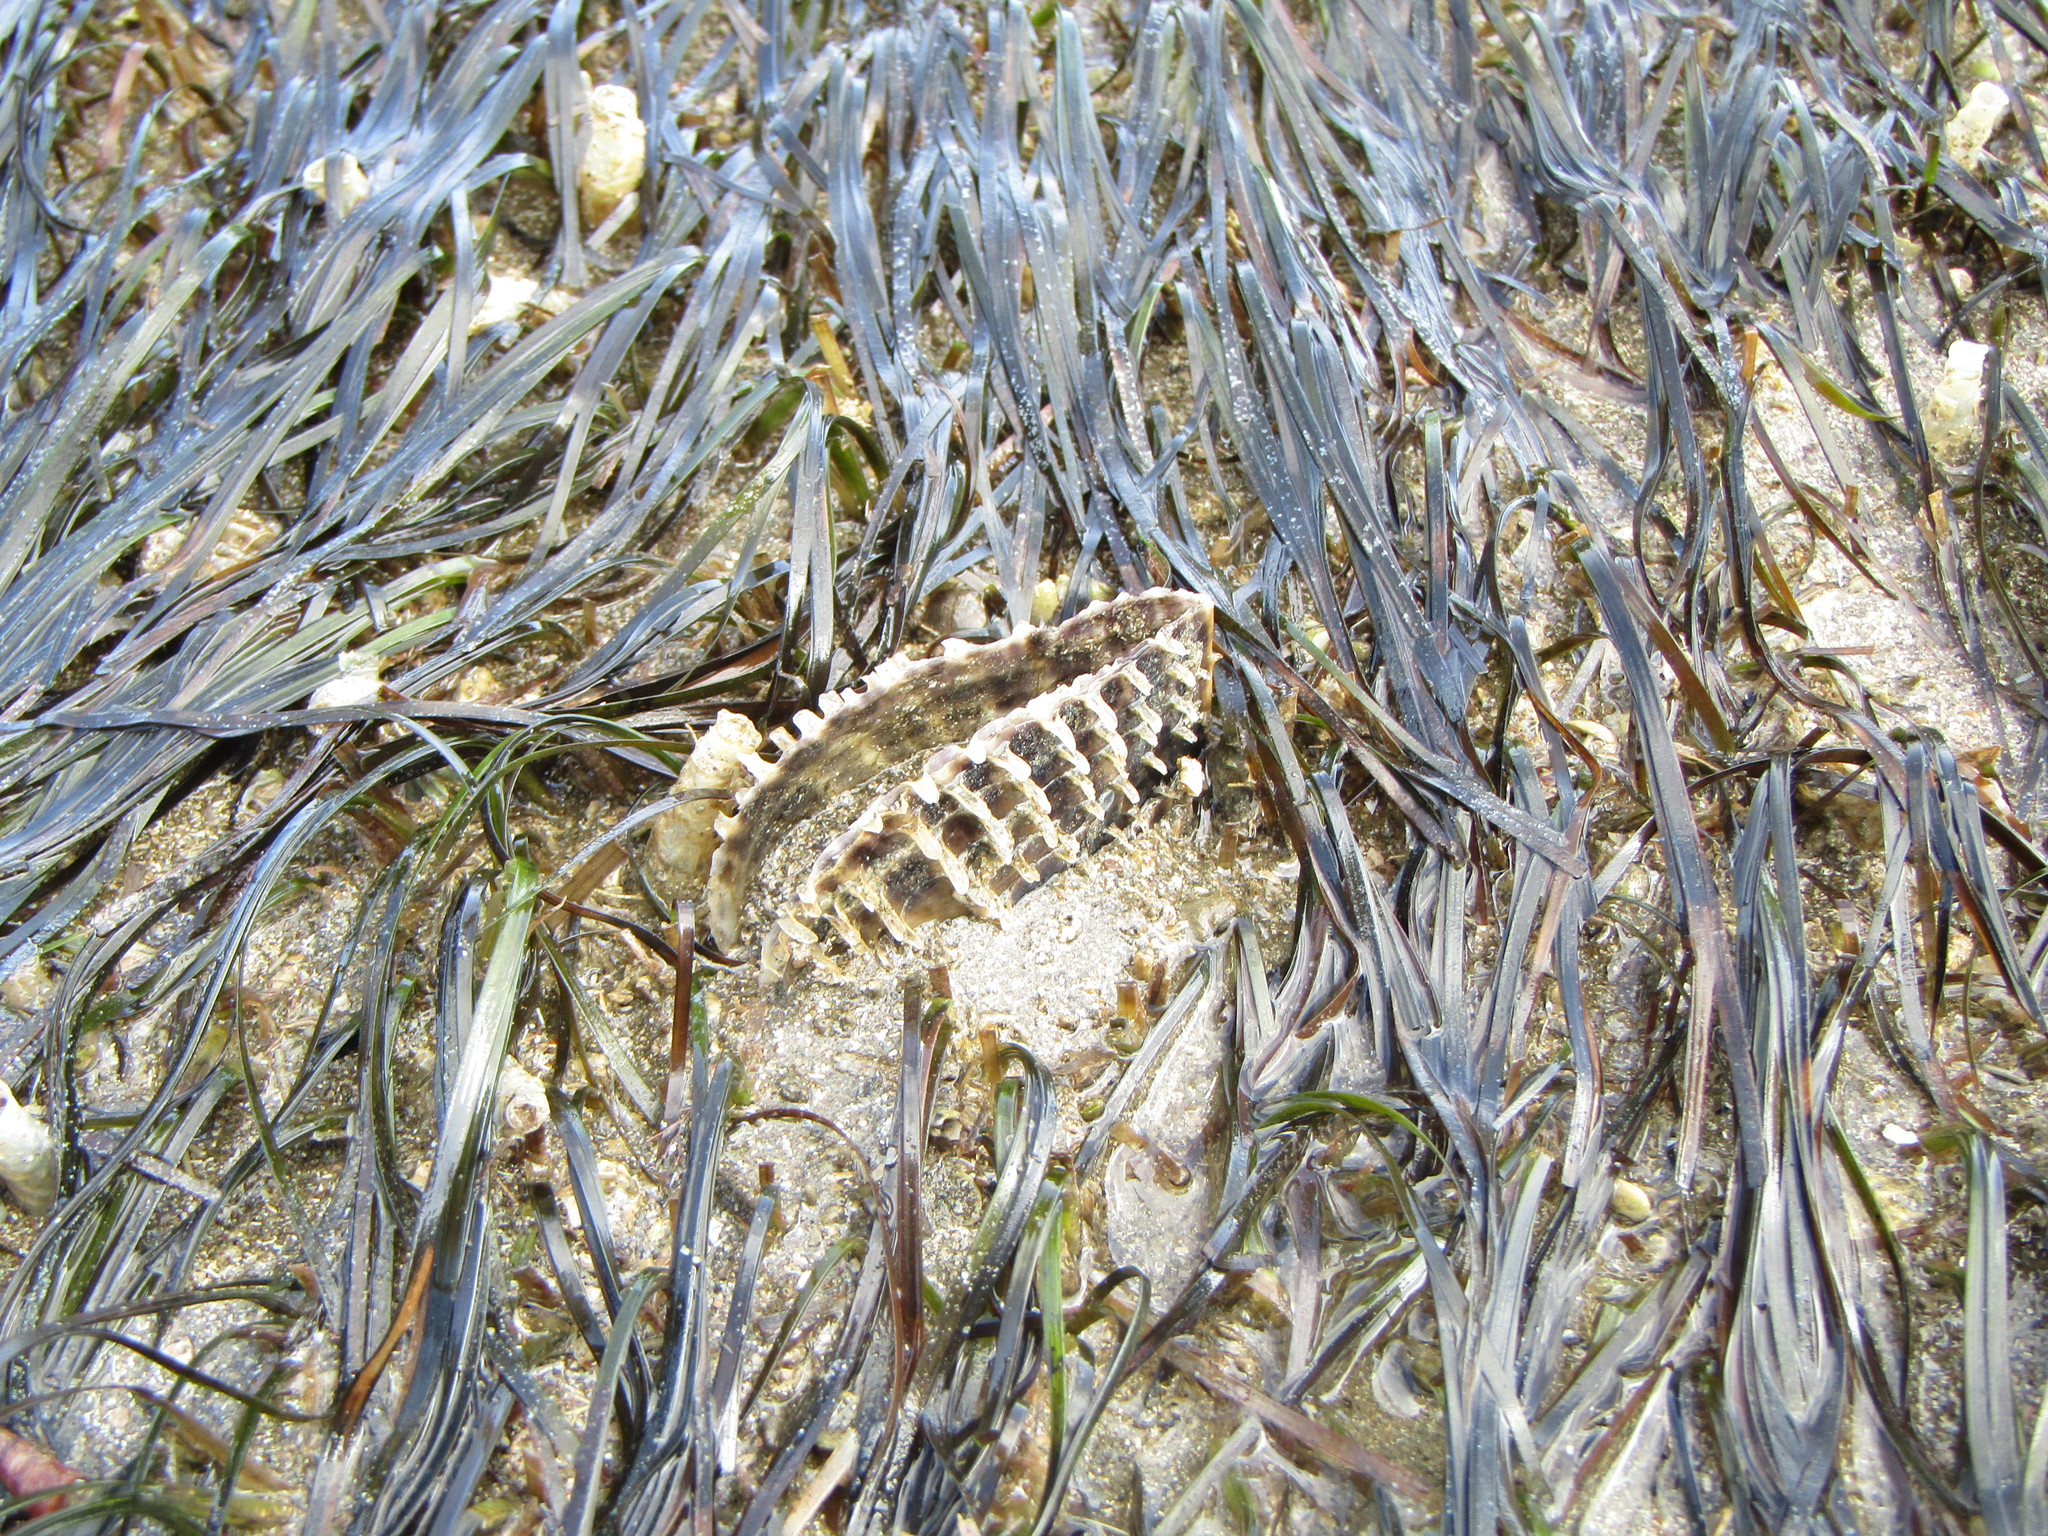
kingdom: Animalia
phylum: Mollusca
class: Bivalvia
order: Ostreida
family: Pinnidae
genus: Atrina
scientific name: Atrina zelandica
